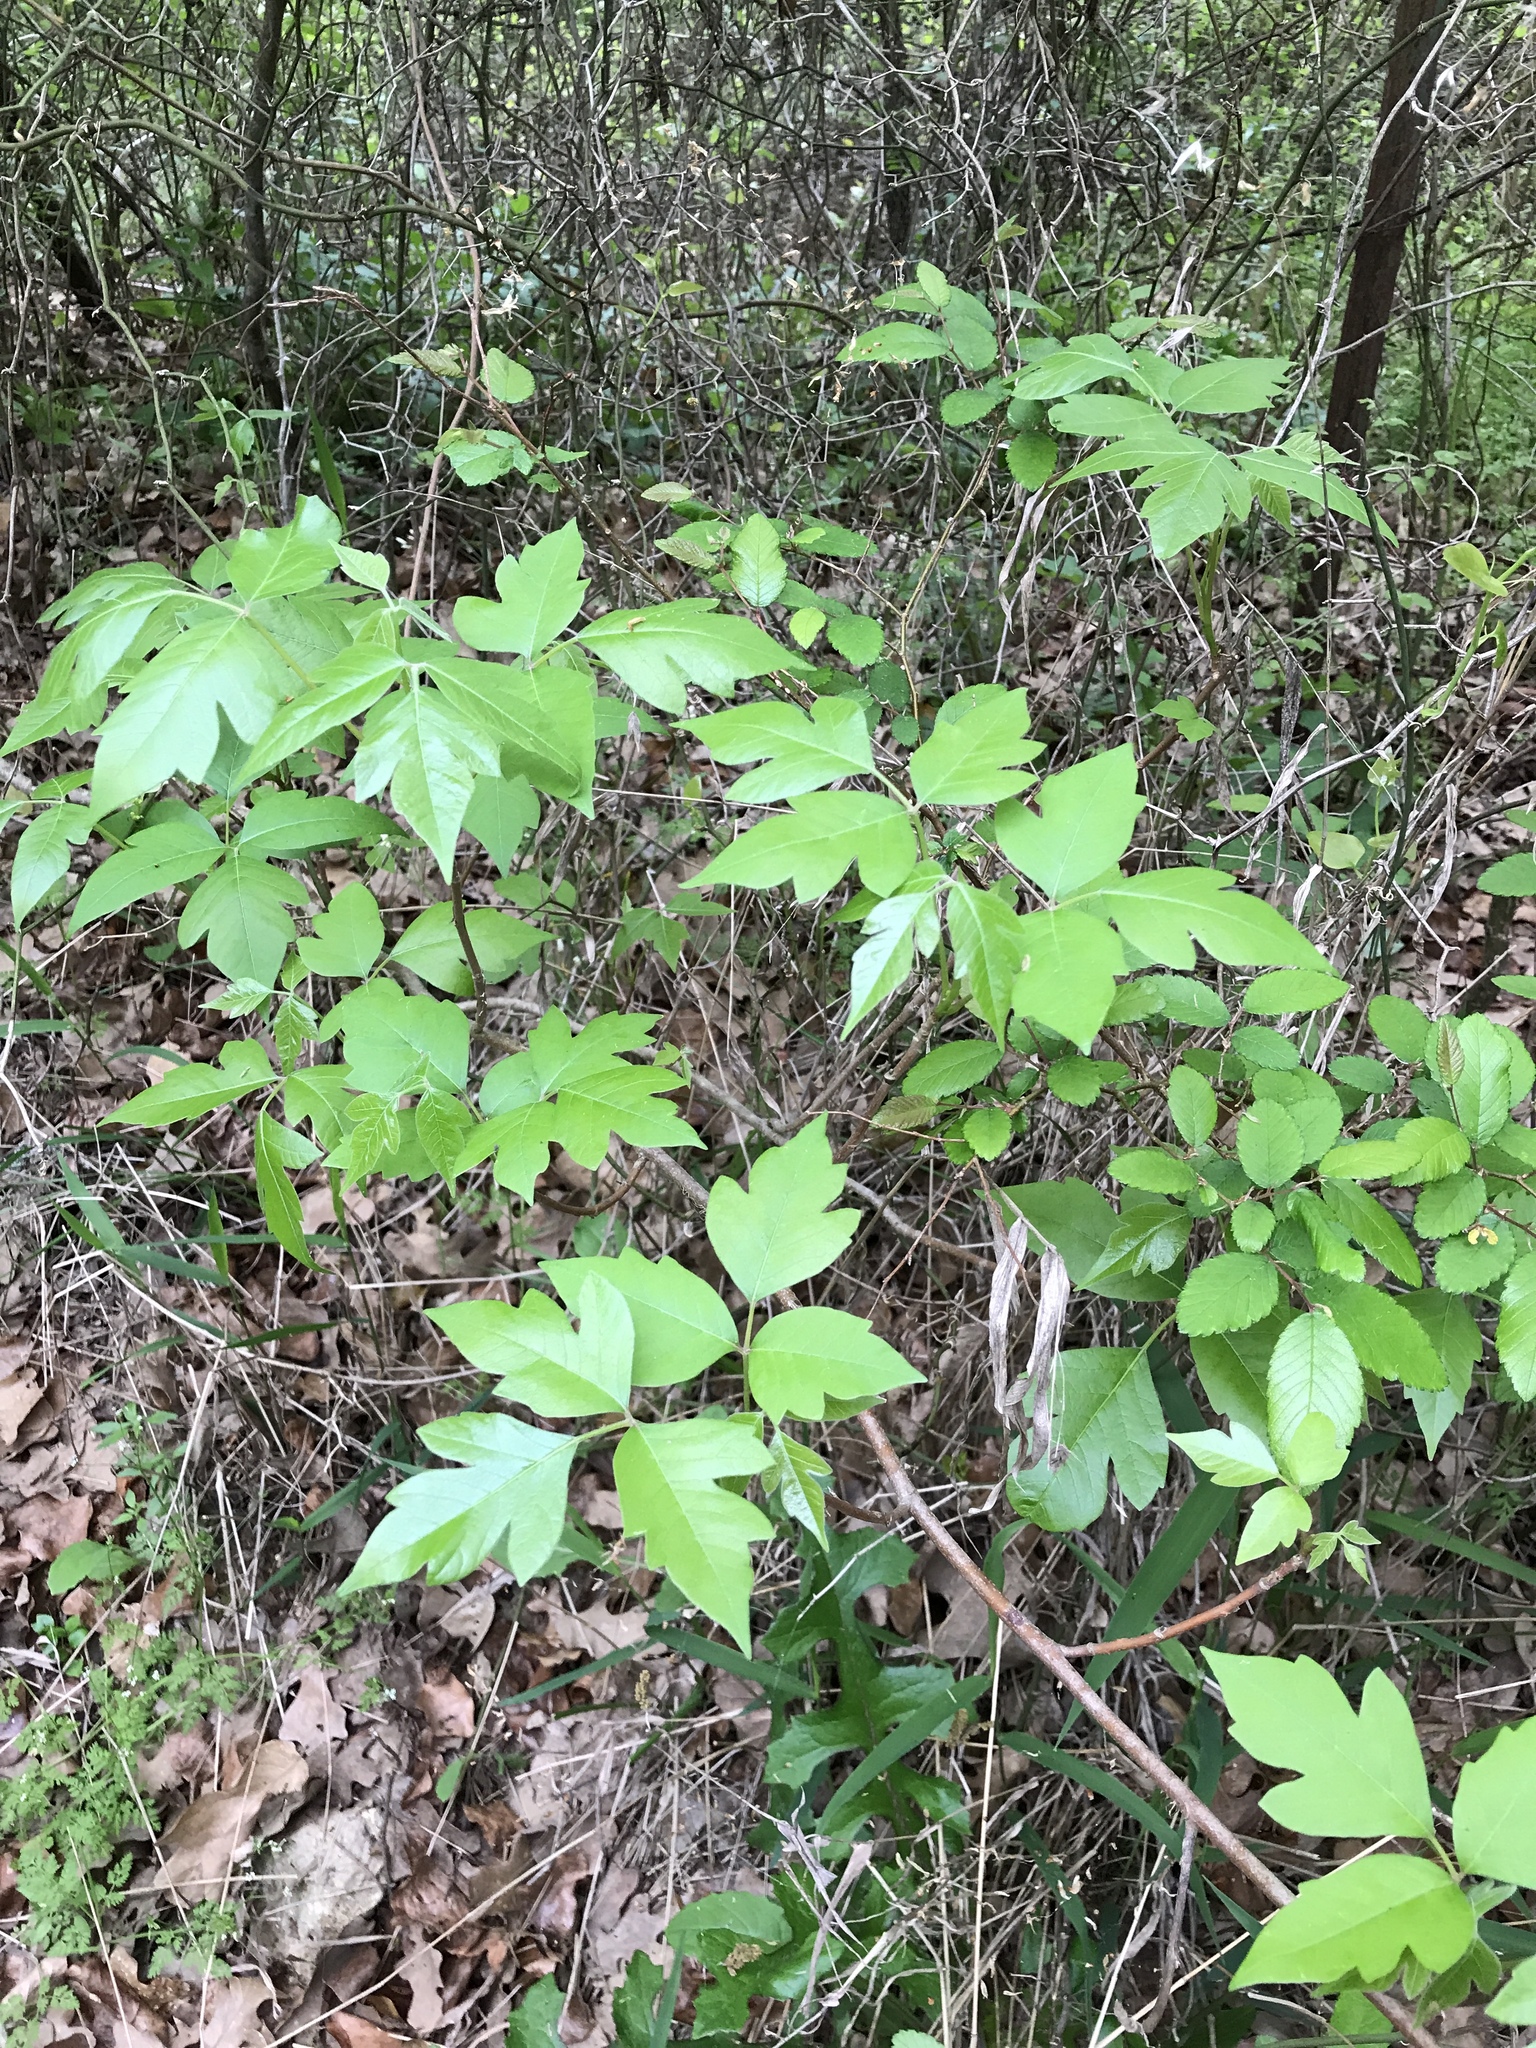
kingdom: Plantae
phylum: Tracheophyta
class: Magnoliopsida
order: Sapindales
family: Anacardiaceae
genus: Toxicodendron
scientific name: Toxicodendron radicans
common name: Poison ivy
